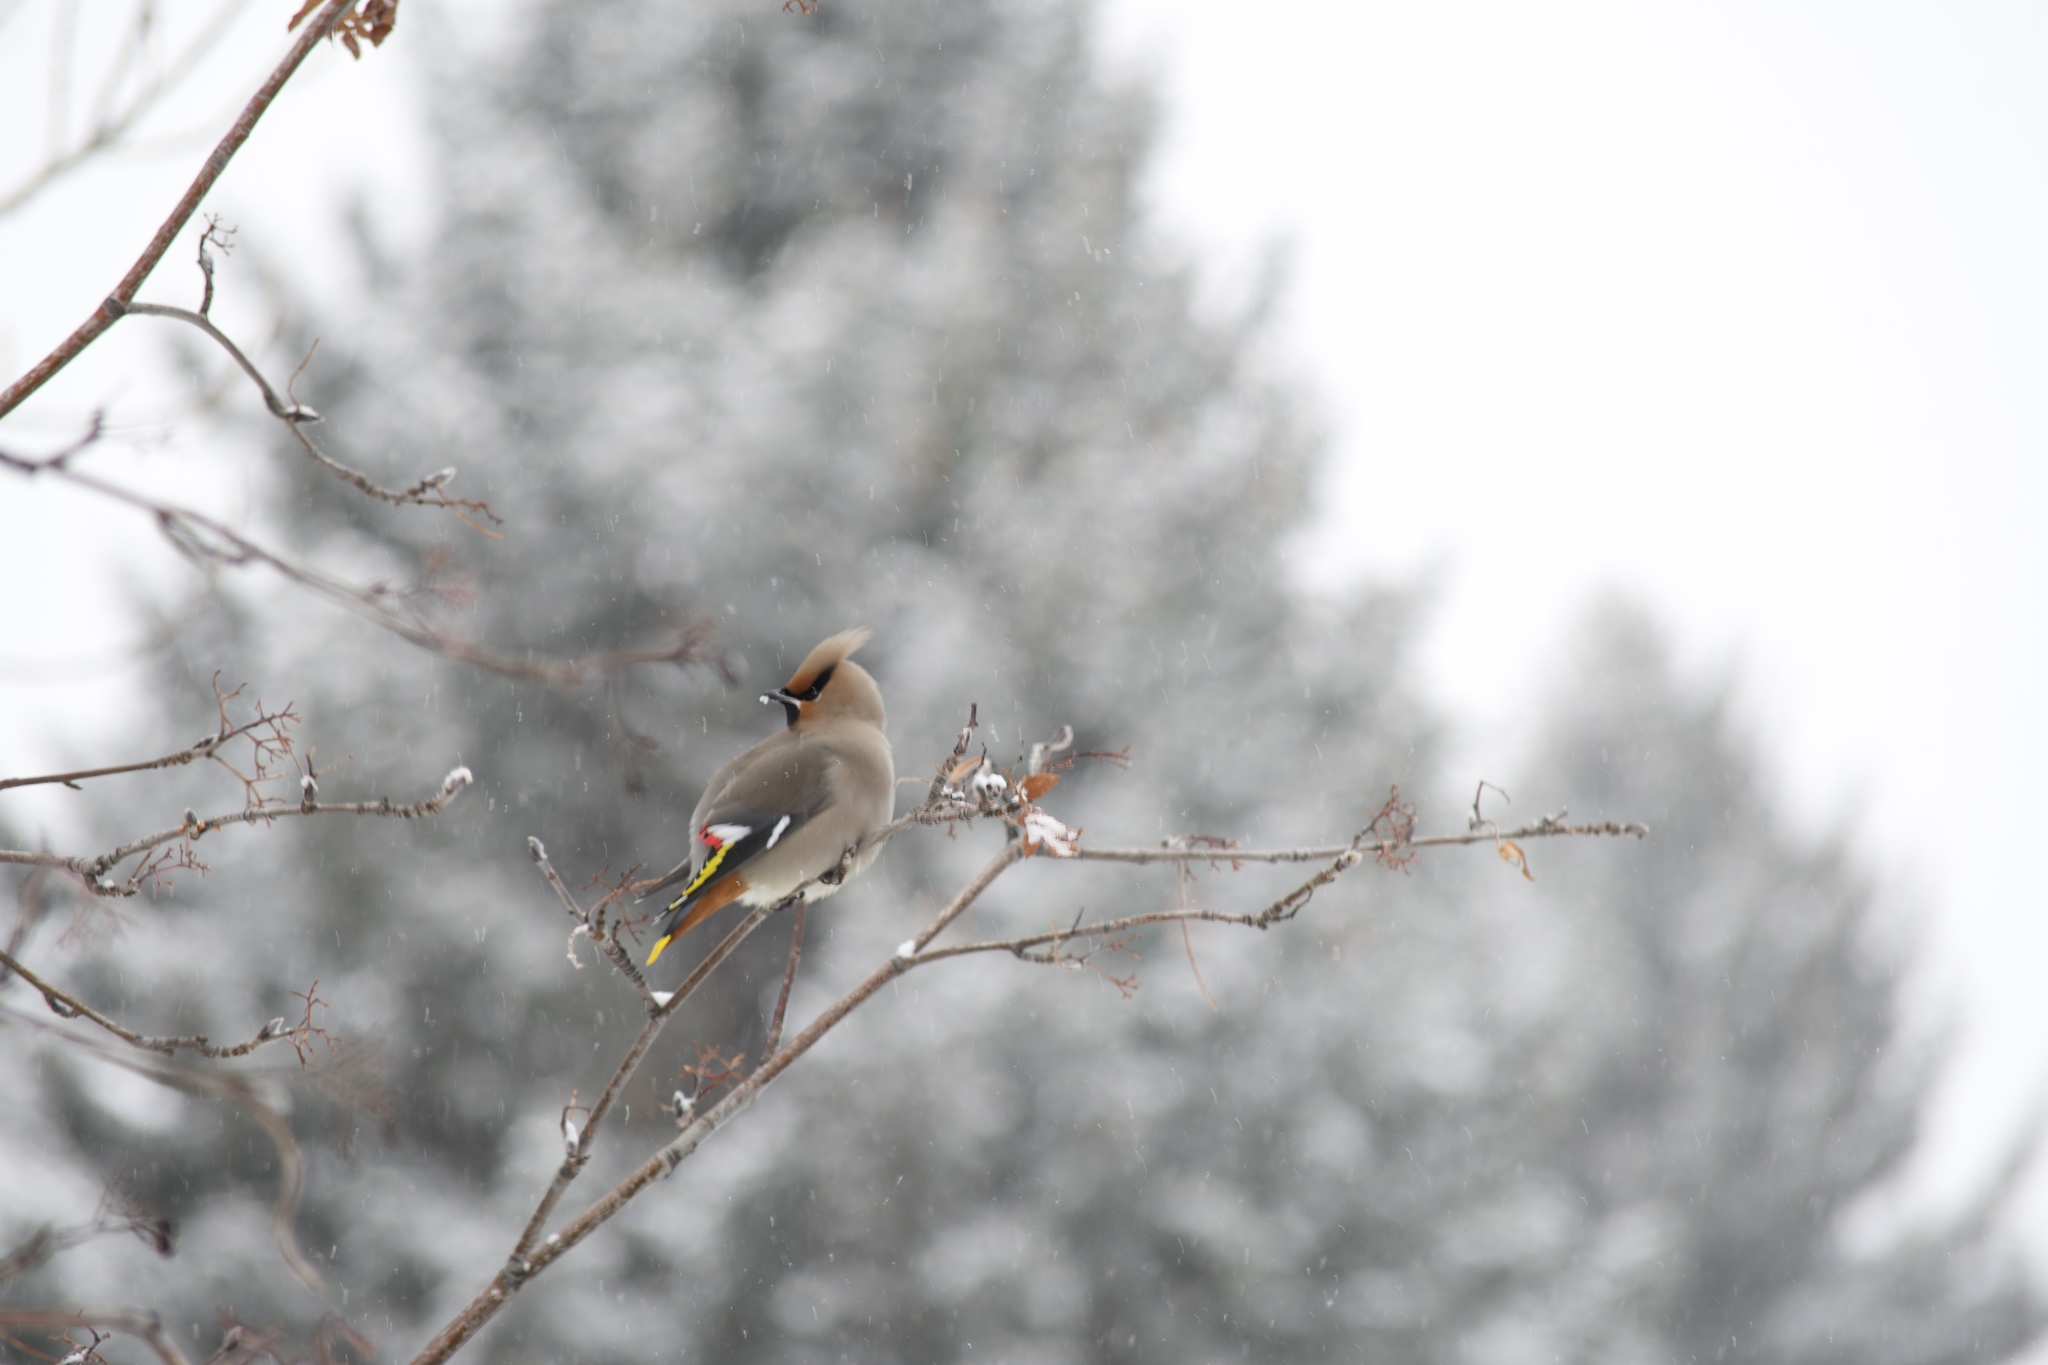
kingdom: Animalia
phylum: Chordata
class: Aves
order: Passeriformes
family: Bombycillidae
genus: Bombycilla
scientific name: Bombycilla garrulus
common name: Bohemian waxwing
